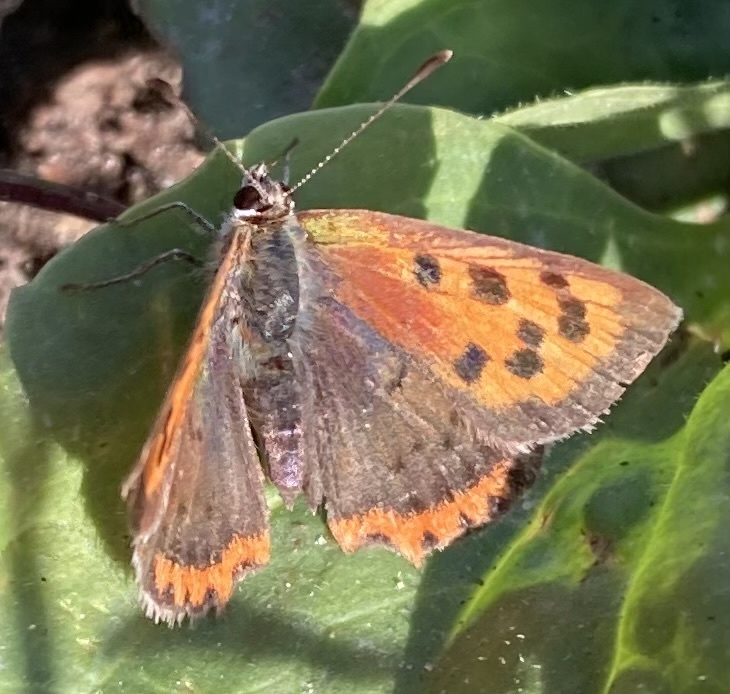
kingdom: Animalia
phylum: Arthropoda
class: Insecta
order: Lepidoptera
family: Lycaenidae
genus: Lycaena
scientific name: Lycaena phlaeas
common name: Small copper
